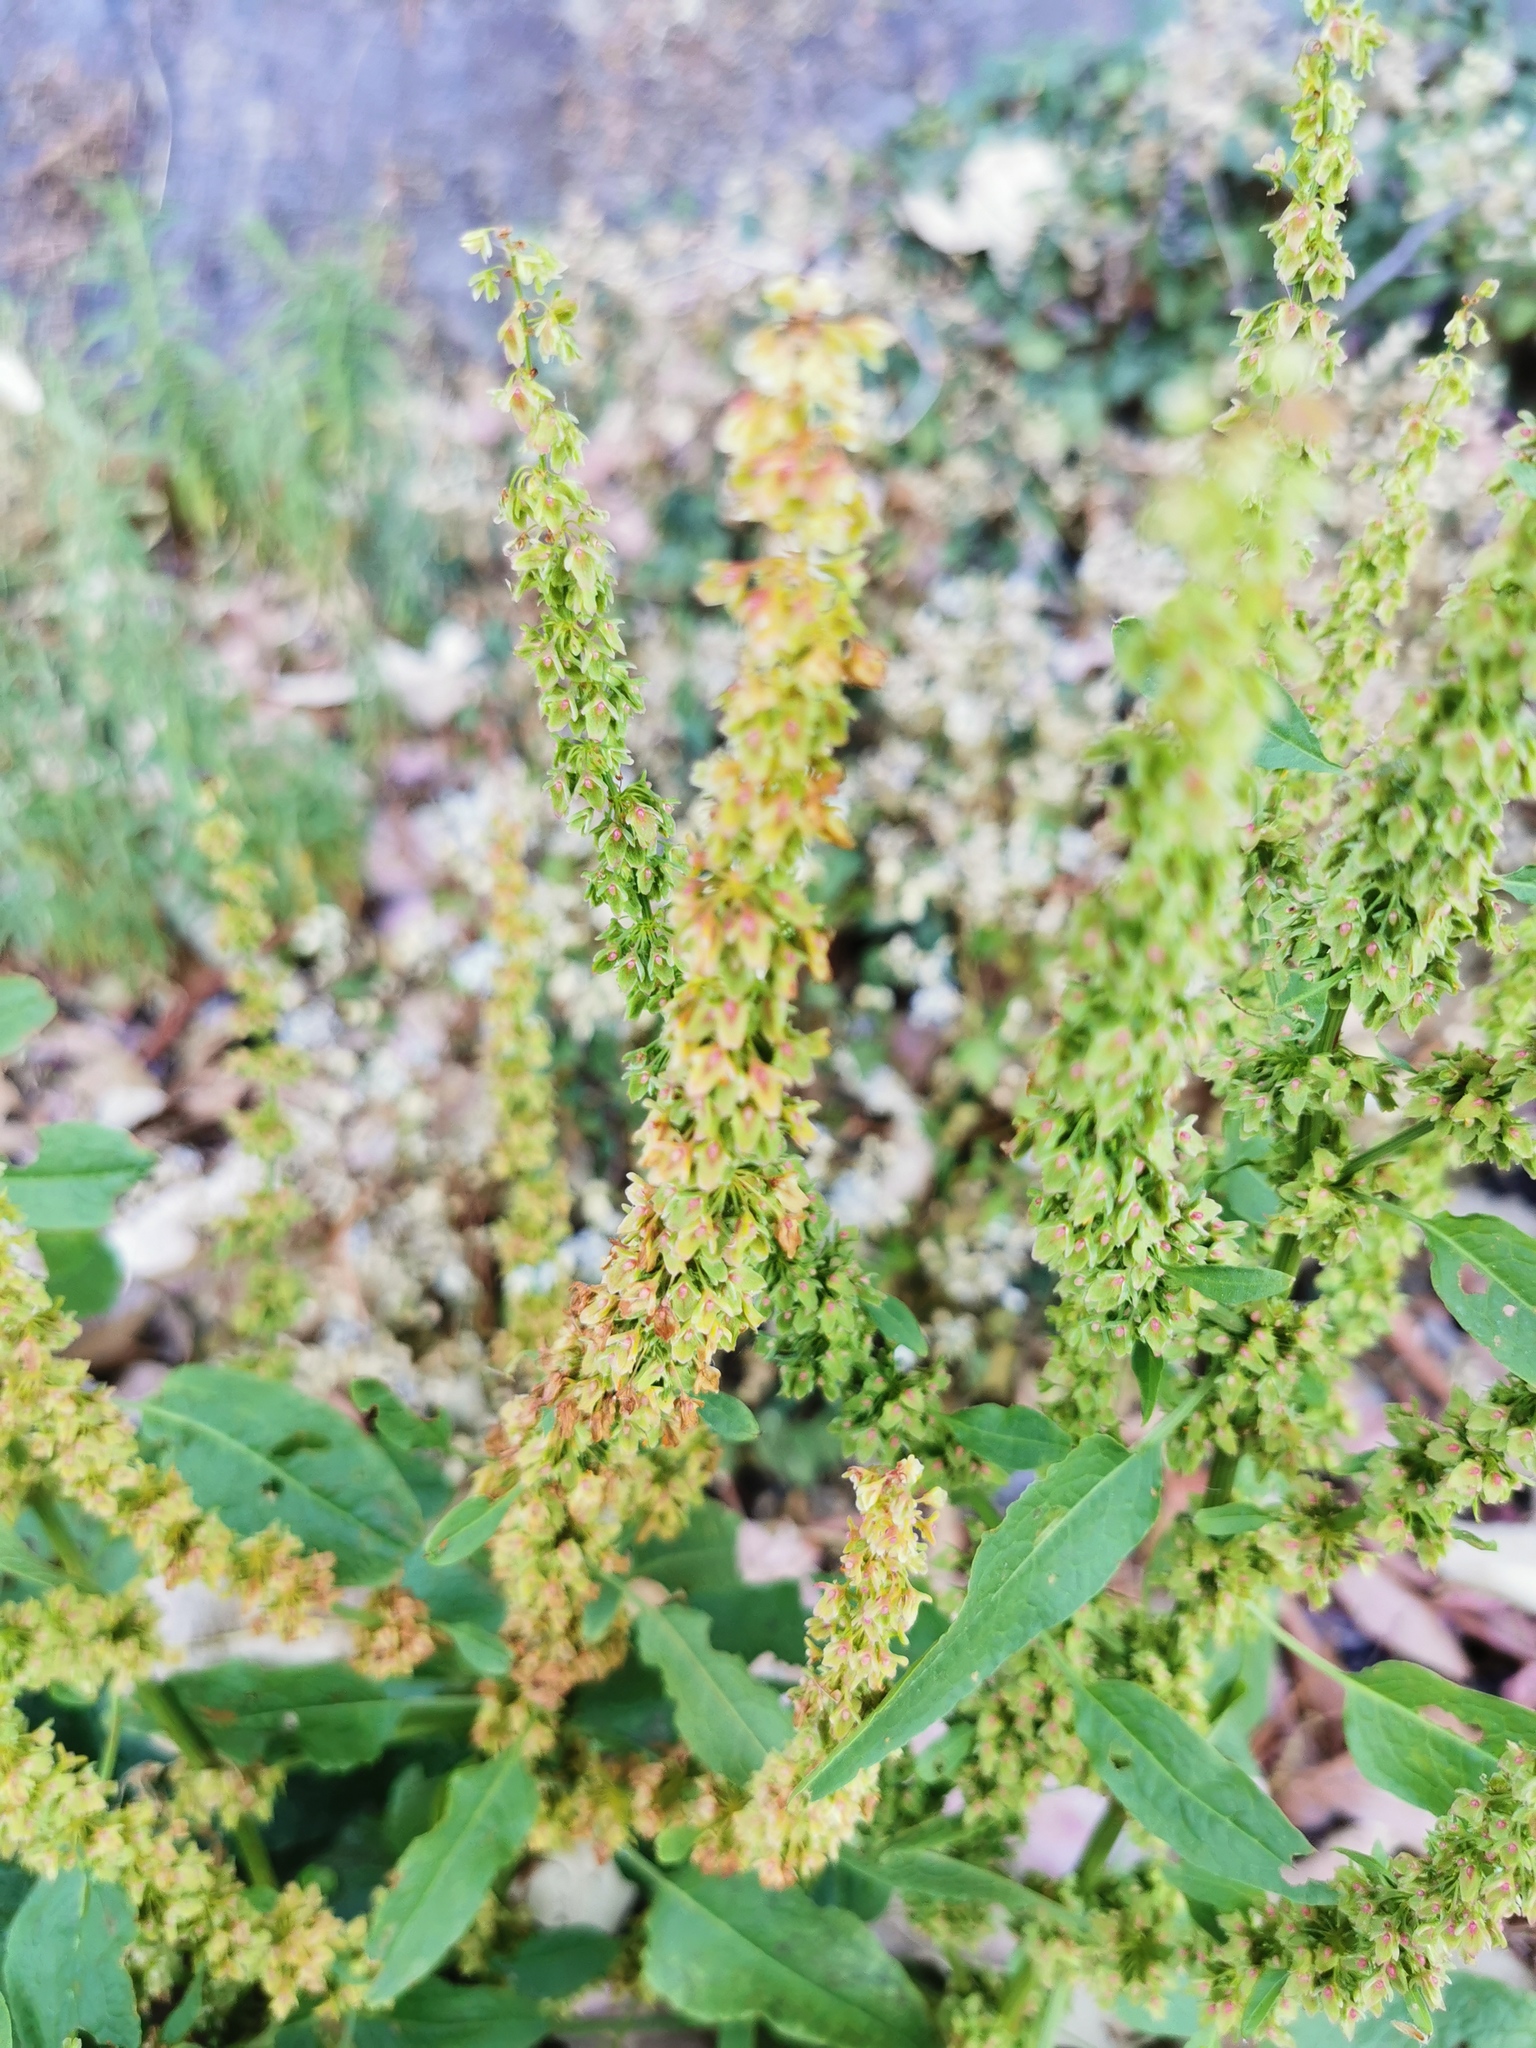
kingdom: Plantae
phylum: Tracheophyta
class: Magnoliopsida
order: Caryophyllales
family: Polygonaceae
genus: Rumex
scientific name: Rumex obtusifolius
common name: Bitter dock
